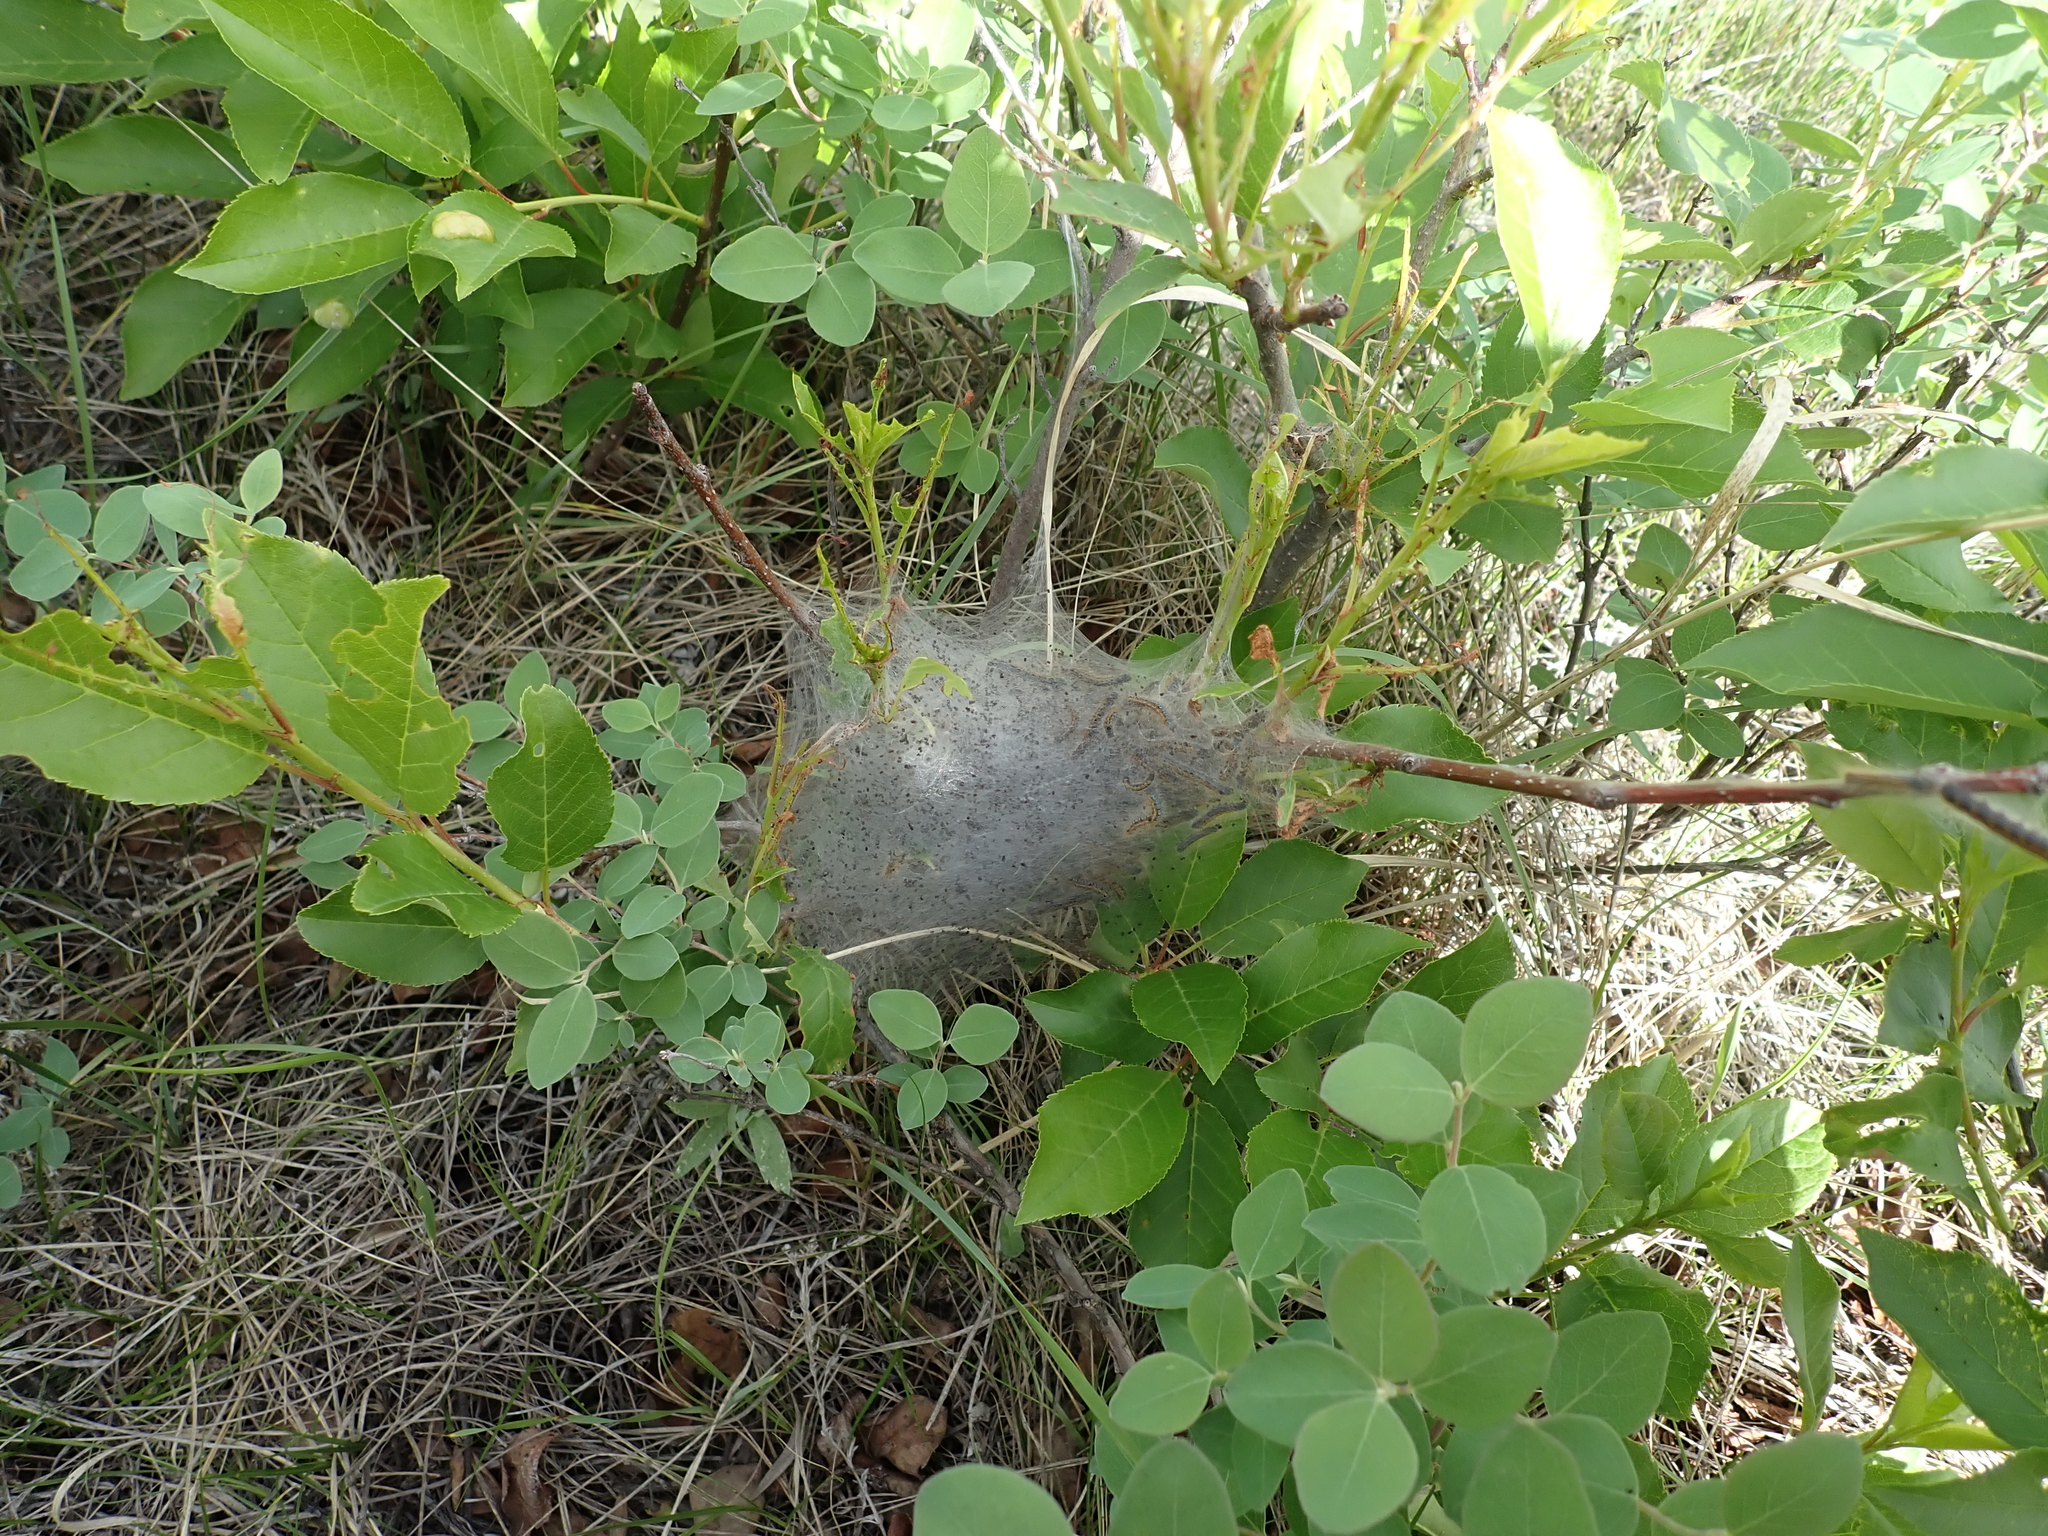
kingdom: Animalia
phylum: Arthropoda
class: Insecta
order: Lepidoptera
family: Lasiocampidae
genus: Malacosoma
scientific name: Malacosoma californica
